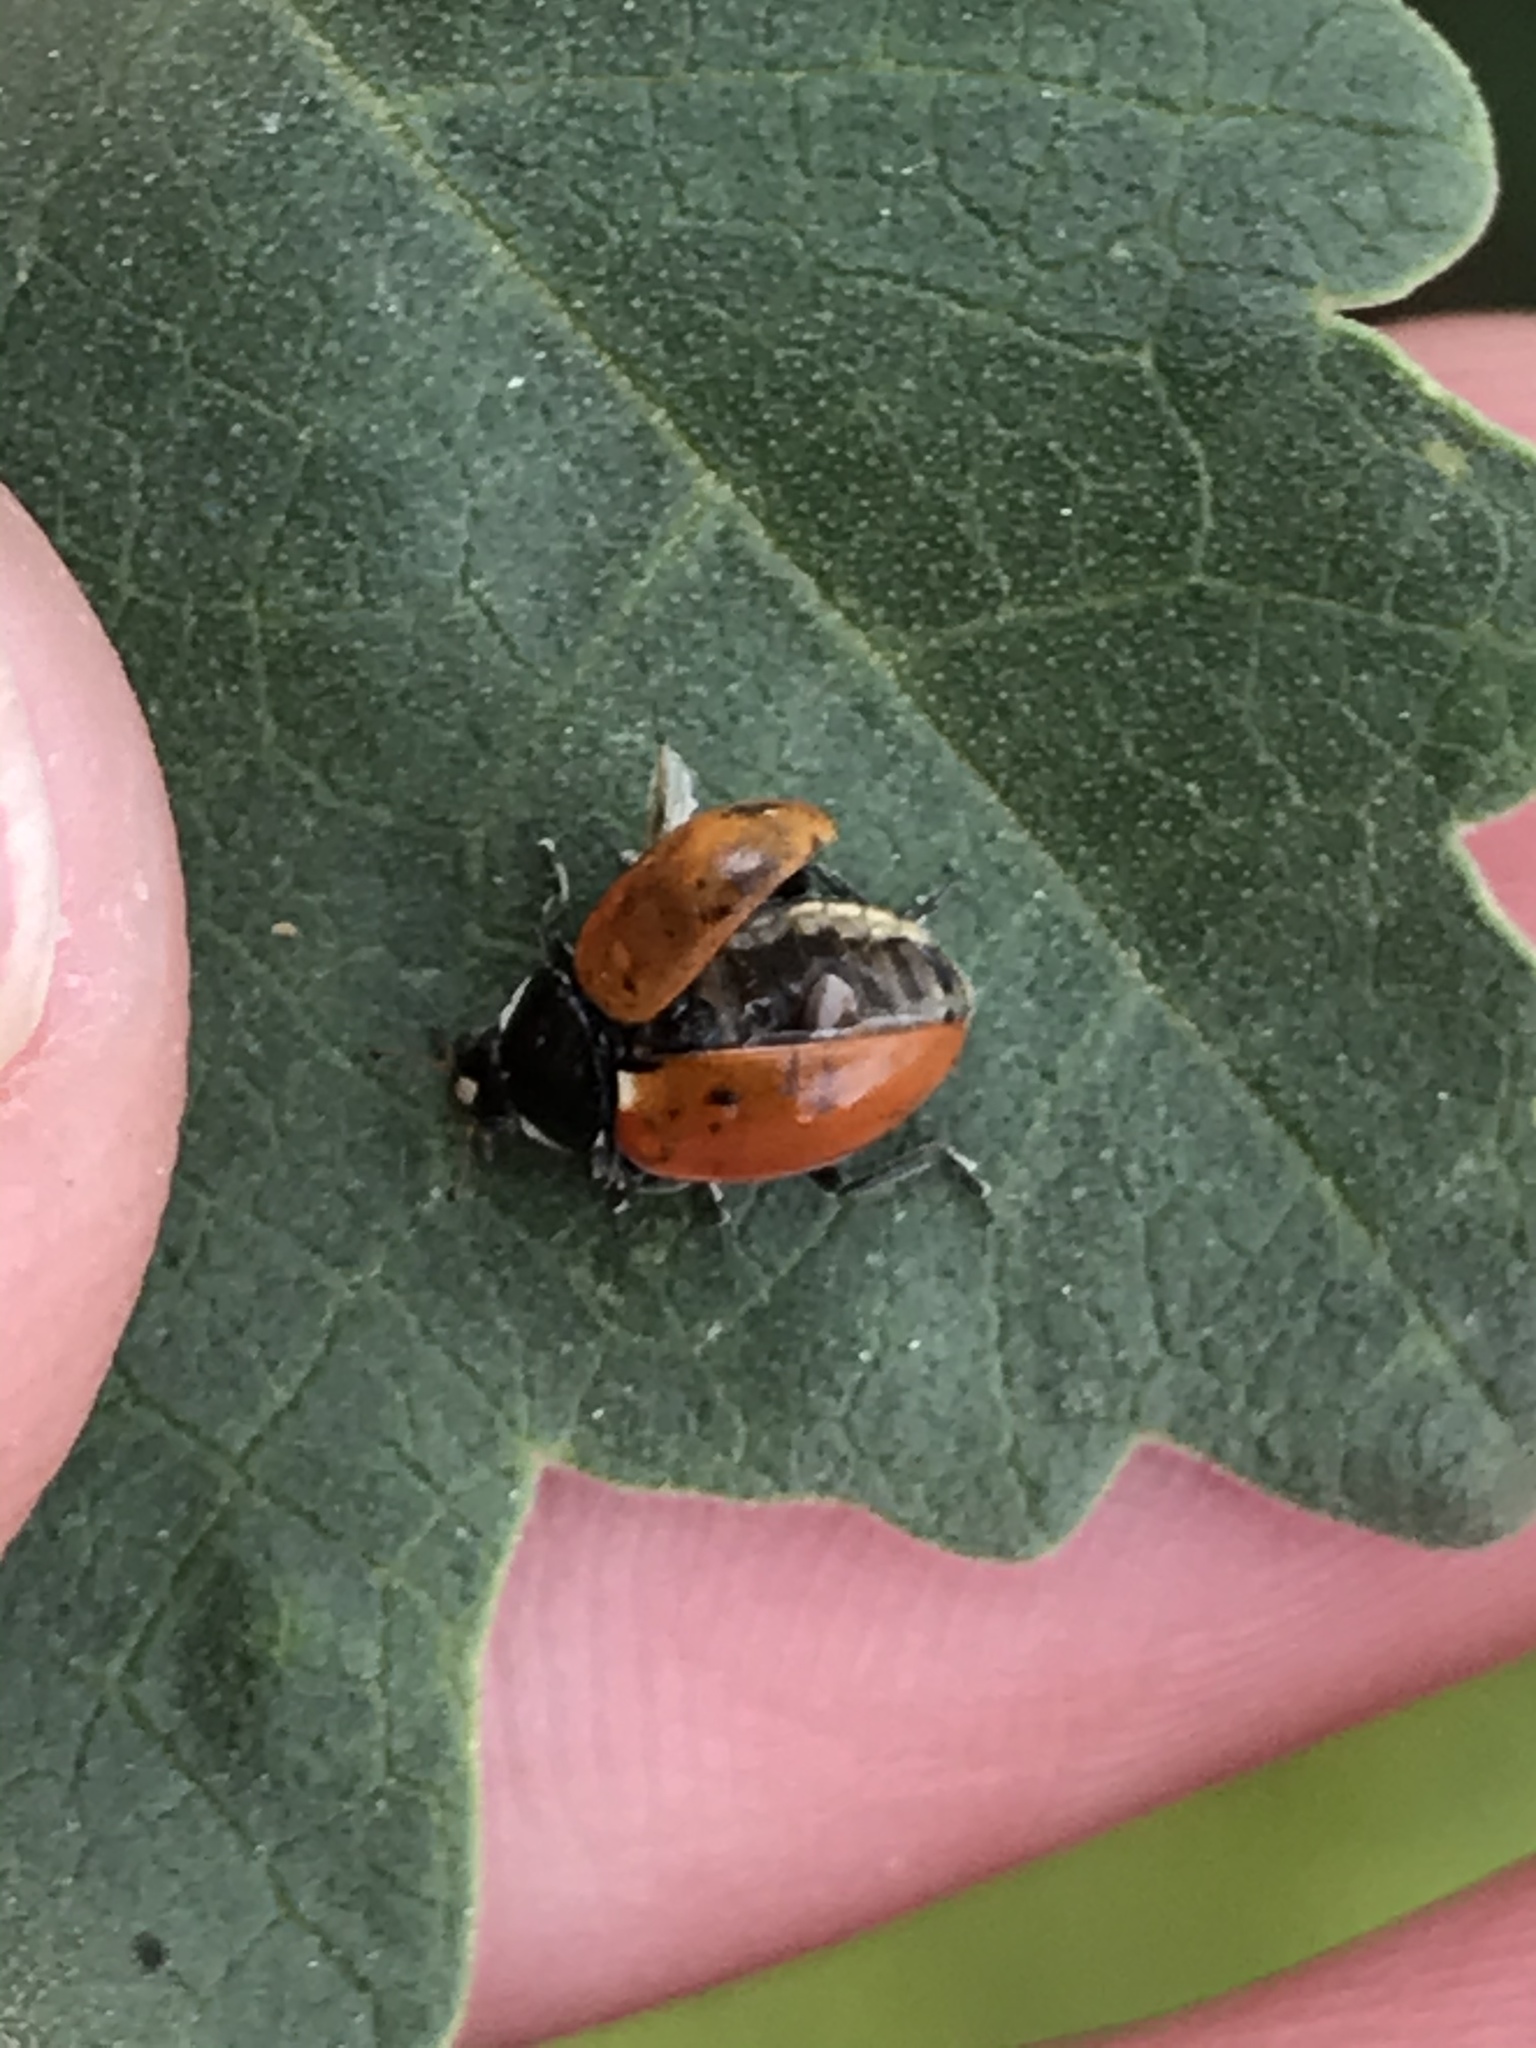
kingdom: Animalia
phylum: Arthropoda
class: Insecta
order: Coleoptera
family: Coccinellidae
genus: Hippodamia
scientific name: Hippodamia quinquesignata
